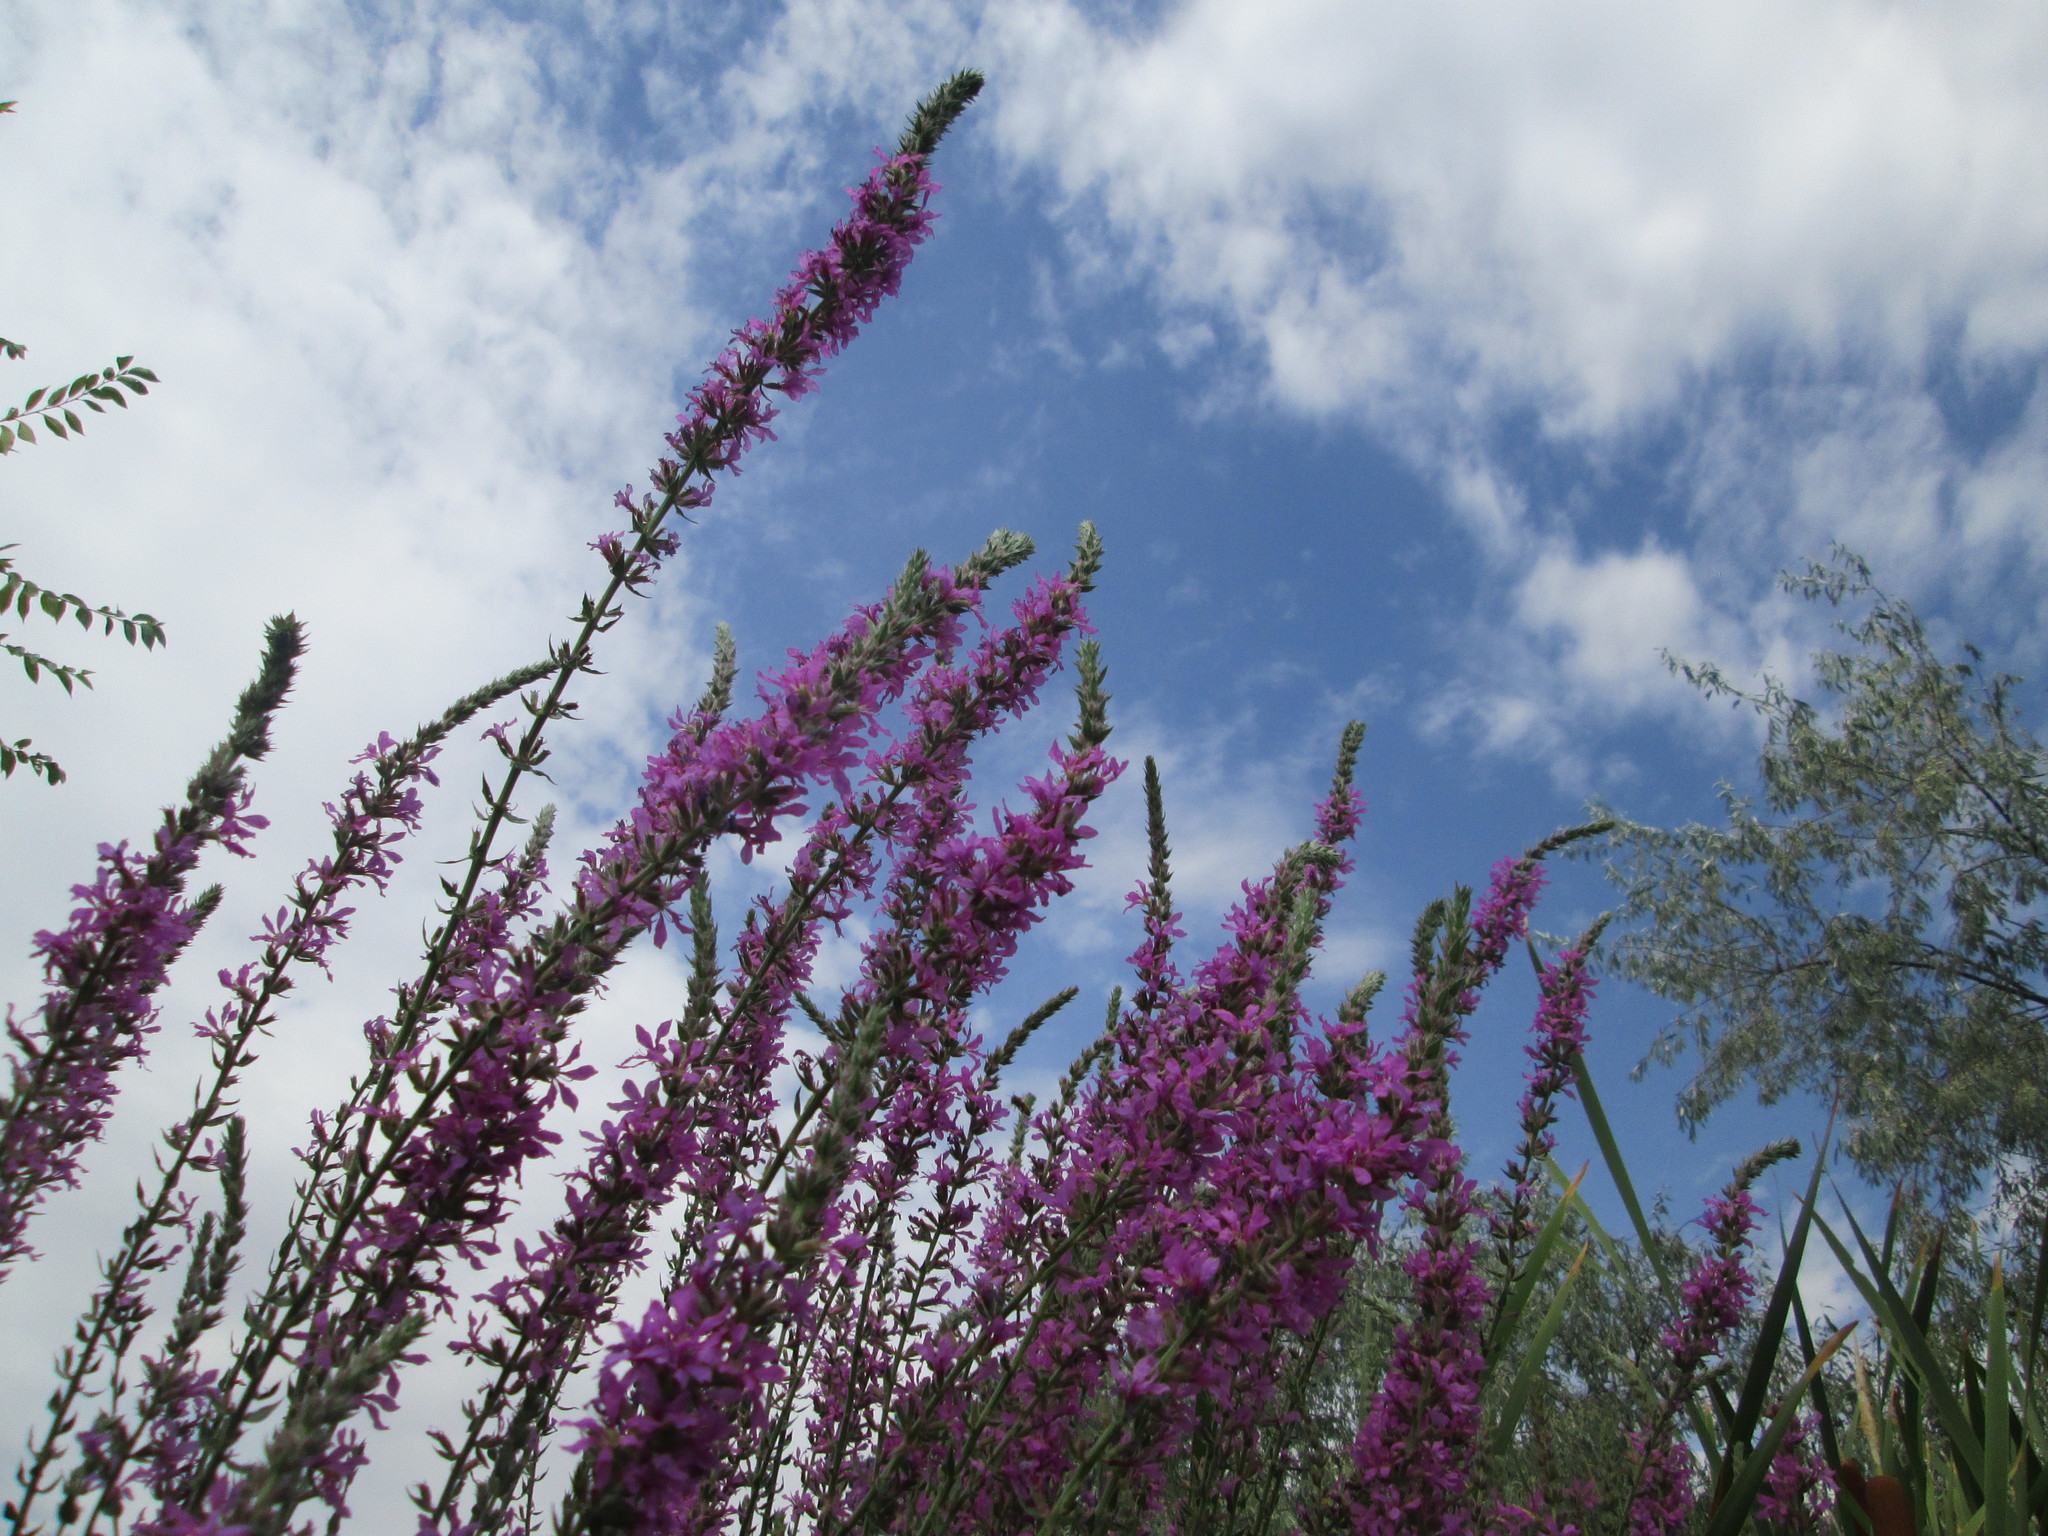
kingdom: Plantae
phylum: Tracheophyta
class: Magnoliopsida
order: Myrtales
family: Lythraceae
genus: Lythrum
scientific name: Lythrum salicaria
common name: Purple loosestrife
